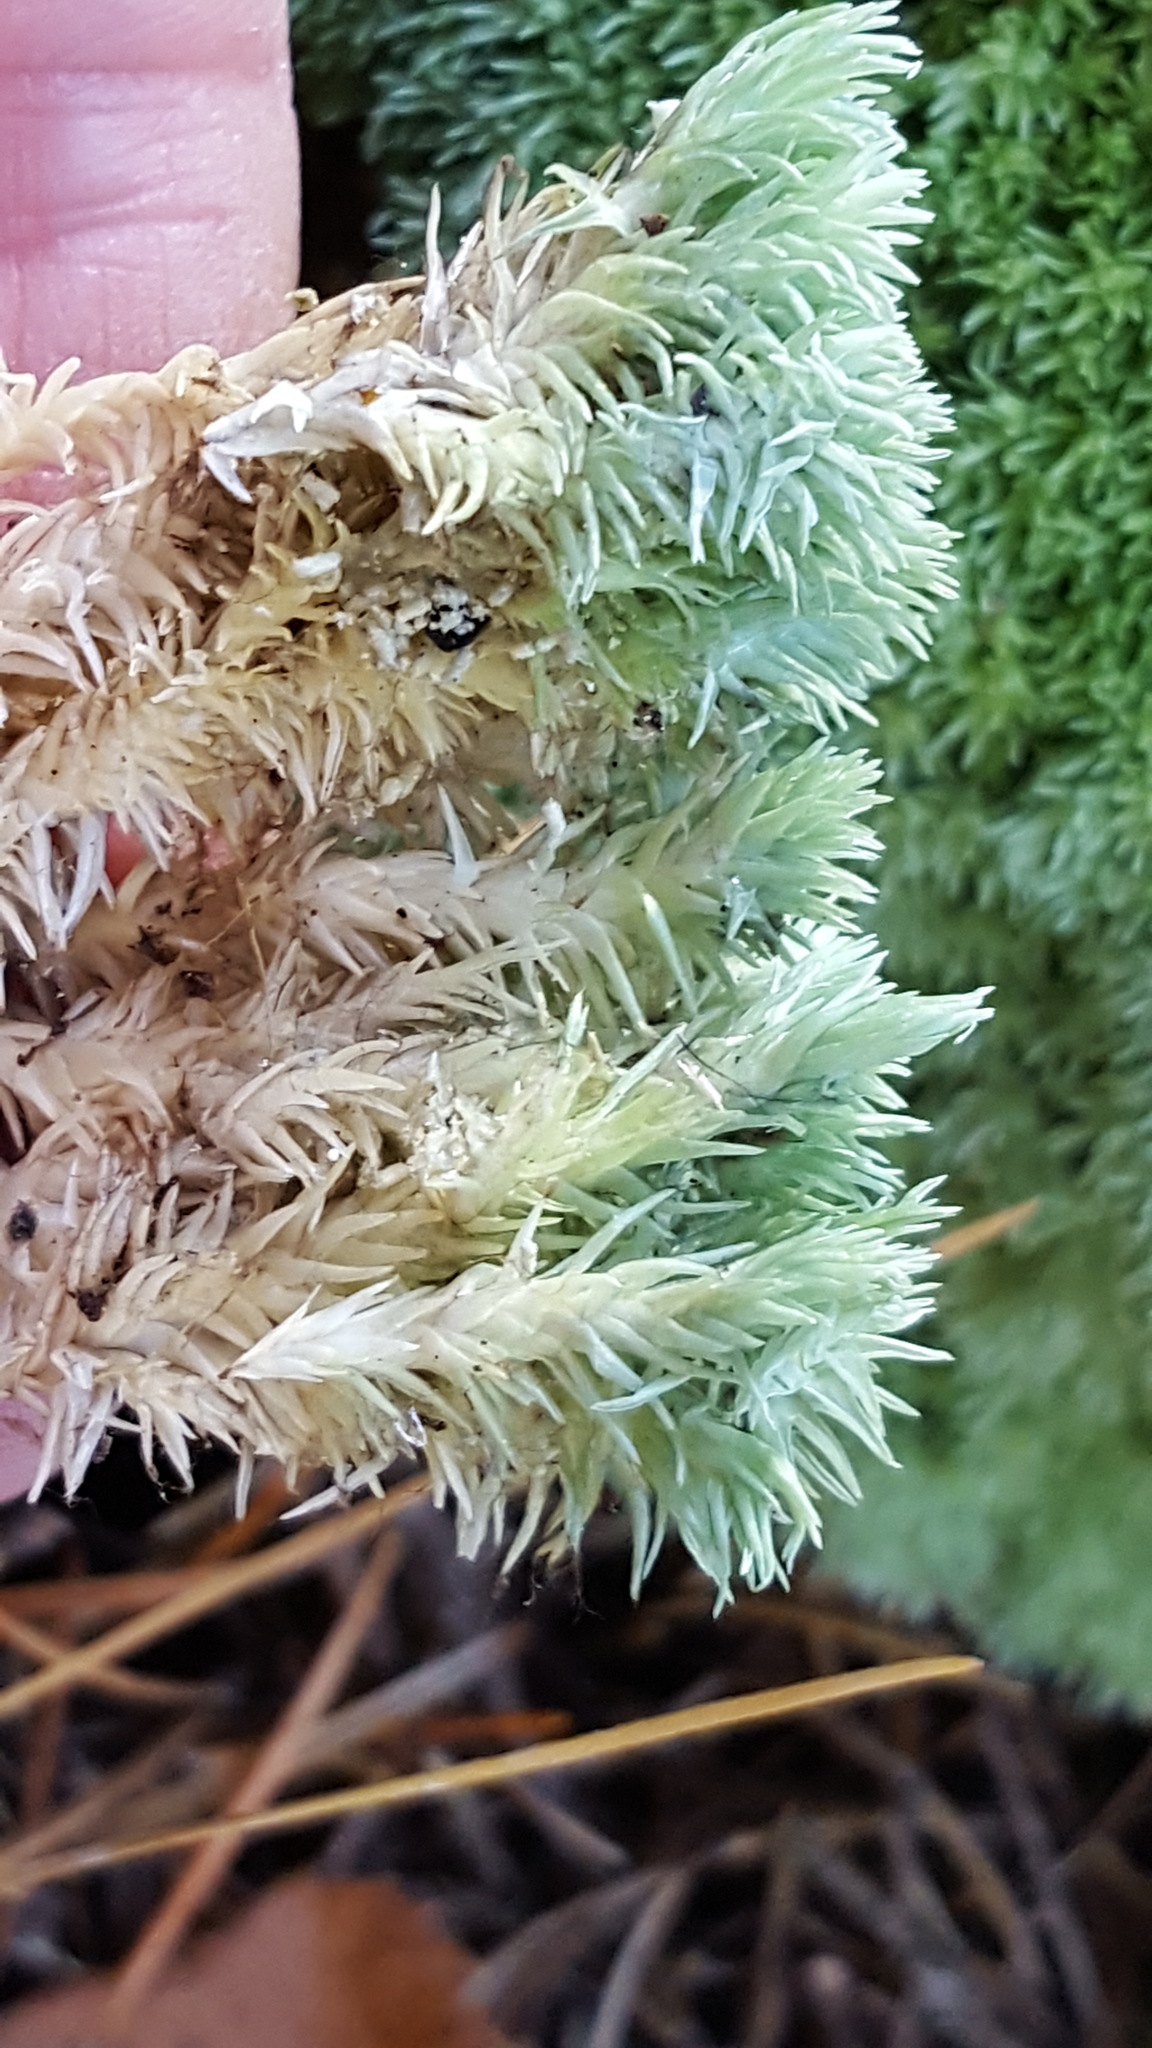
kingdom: Plantae
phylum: Bryophyta
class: Bryopsida
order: Dicranales
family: Leucobryaceae
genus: Leucobryum
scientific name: Leucobryum glaucum
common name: Large white-moss
